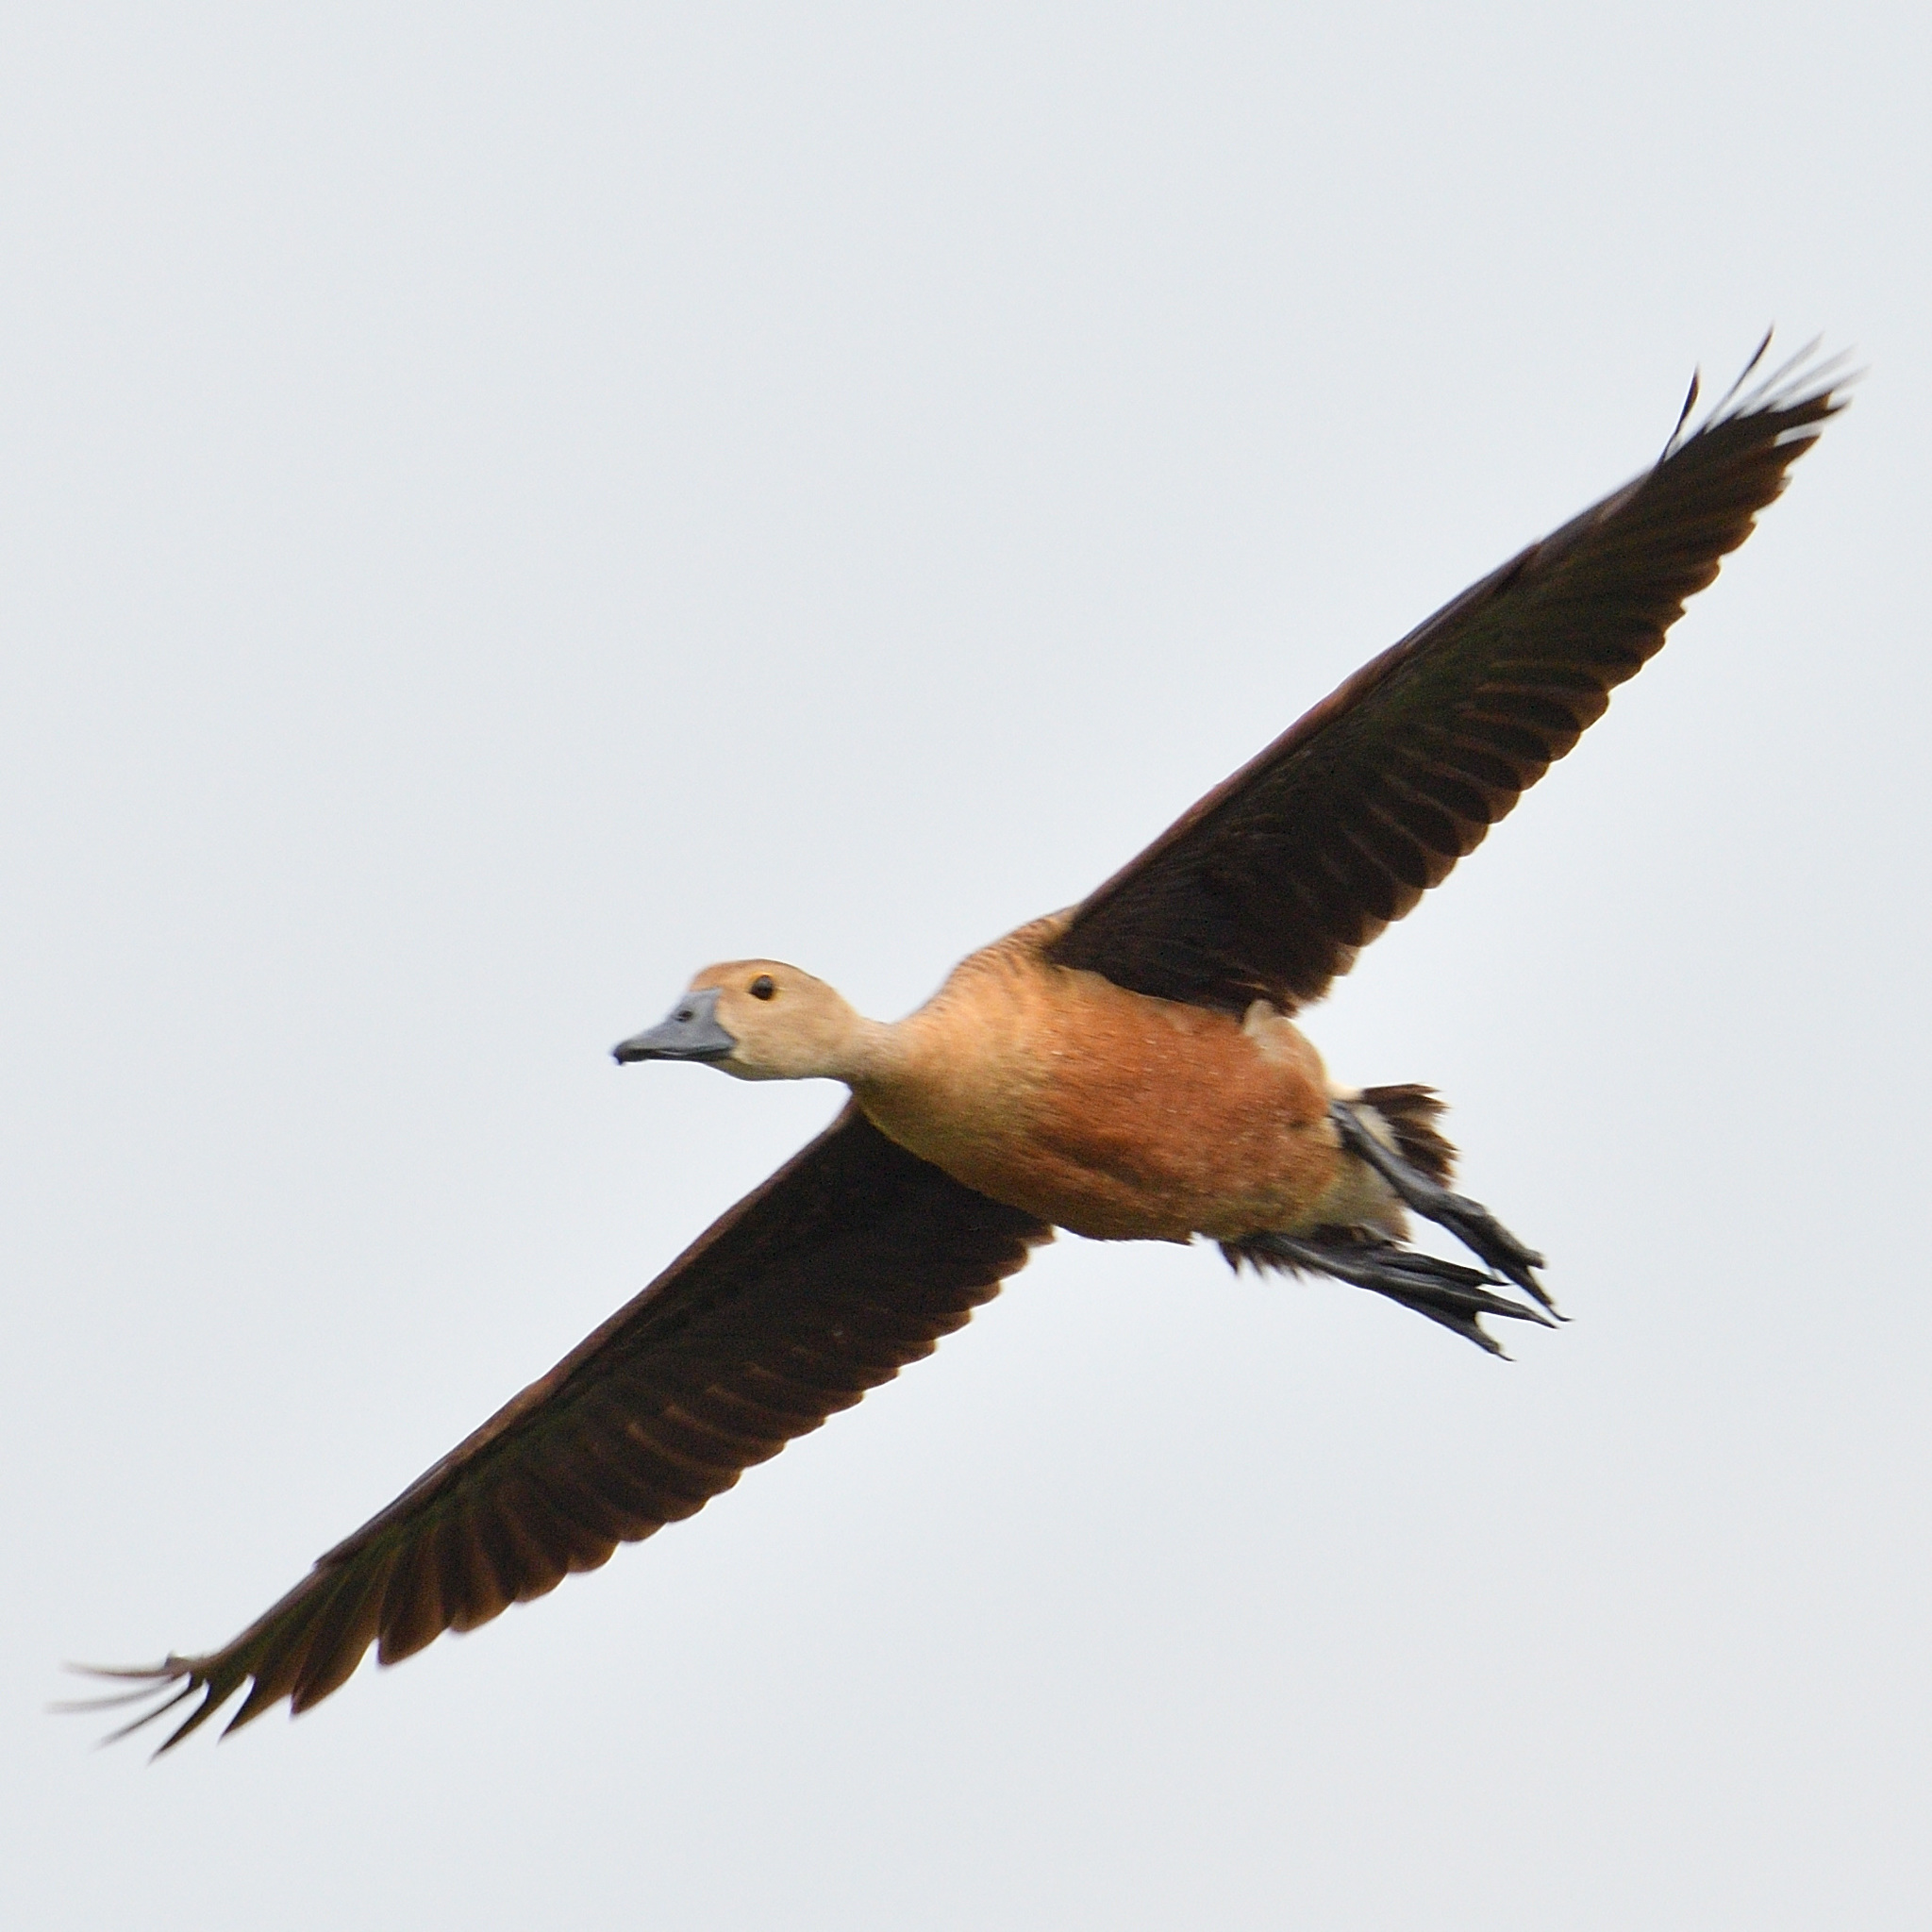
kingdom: Animalia
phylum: Chordata
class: Aves
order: Anseriformes
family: Anatidae
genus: Dendrocygna
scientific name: Dendrocygna javanica
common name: Lesser whistling-duck
